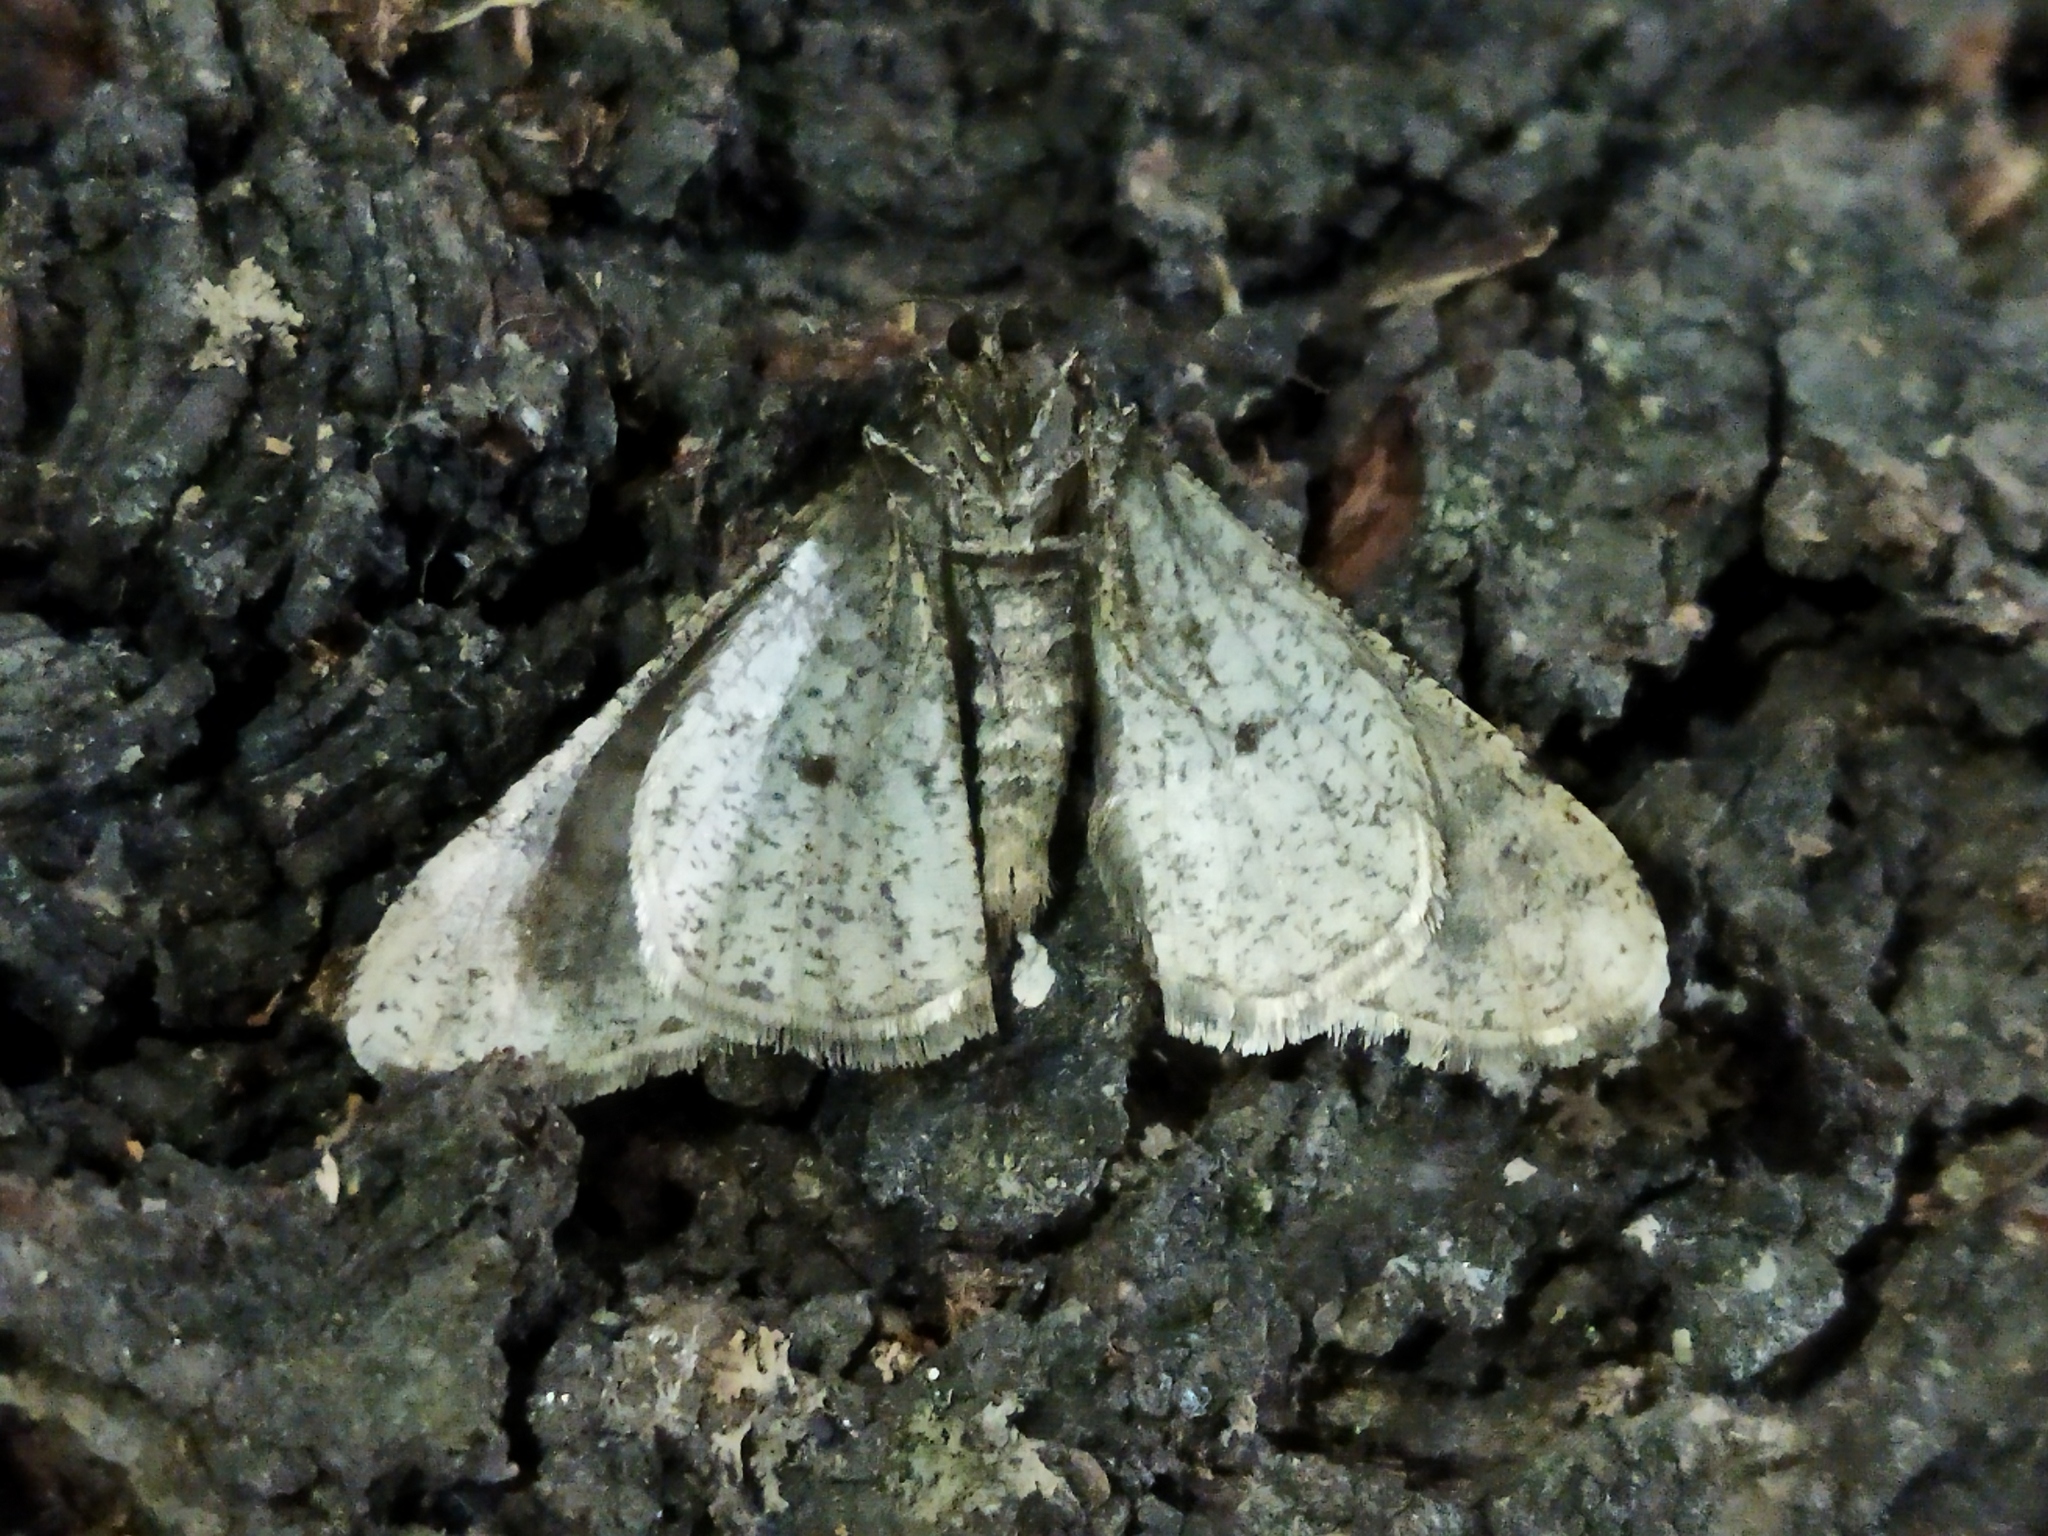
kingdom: Animalia
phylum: Arthropoda
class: Insecta
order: Lepidoptera
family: Geometridae
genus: Agriopis
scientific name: Agriopis leucophaearia
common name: Spring usher
